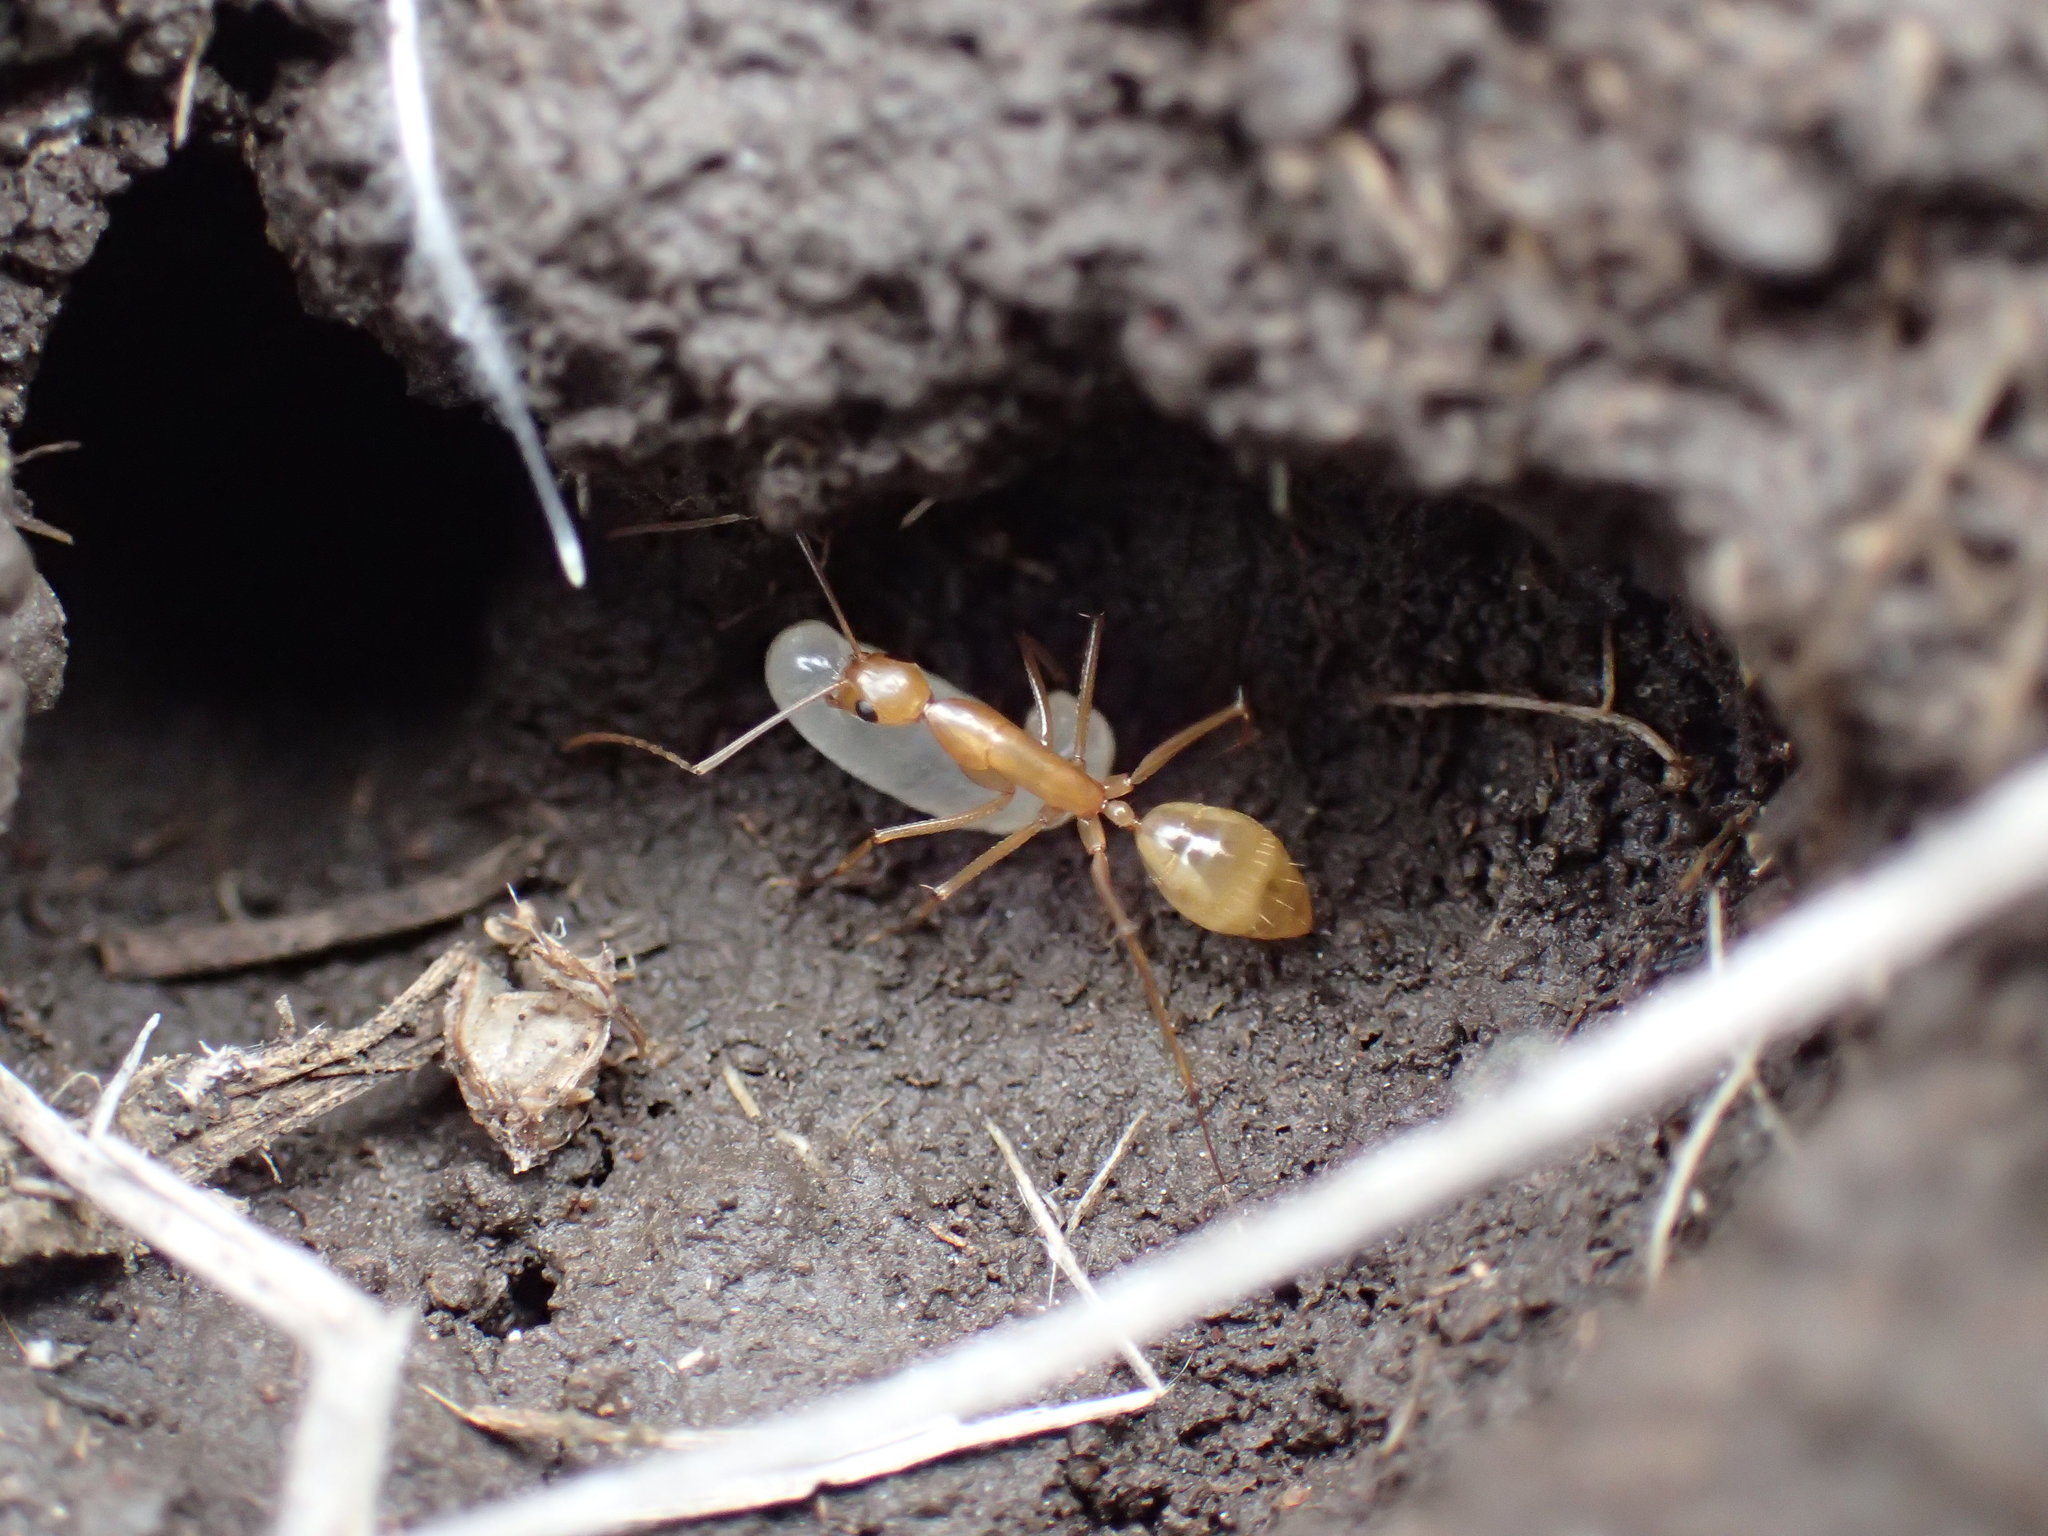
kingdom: Animalia
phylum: Arthropoda
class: Insecta
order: Hymenoptera
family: Formicidae
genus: Camponotus
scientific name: Camponotus importunus
